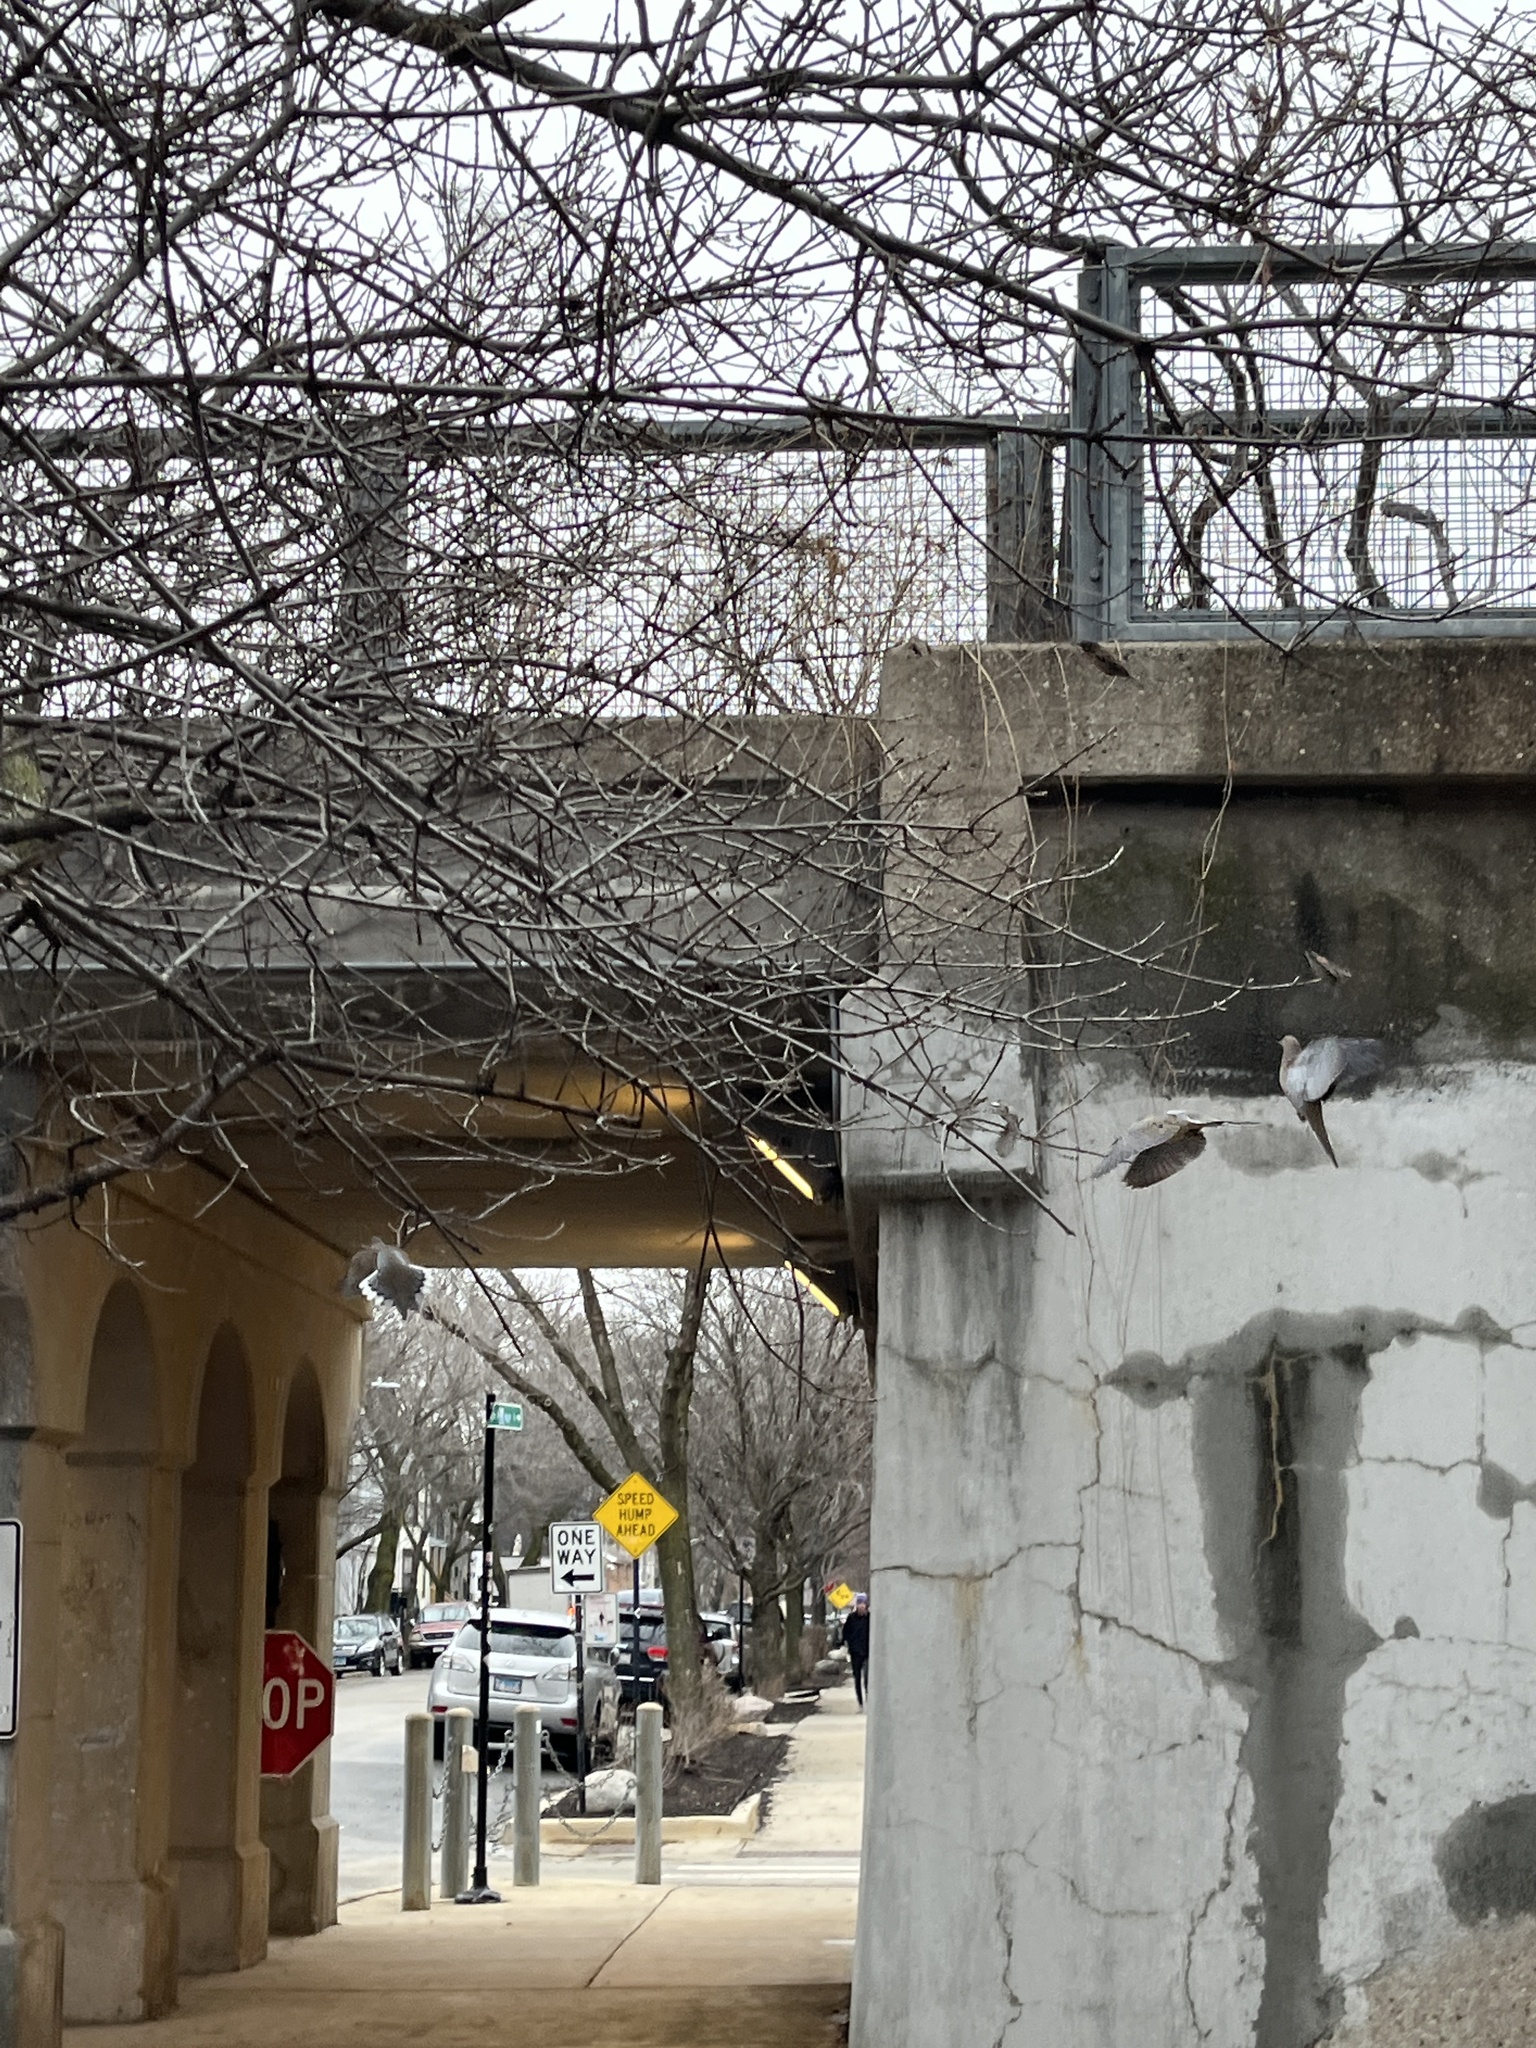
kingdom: Animalia
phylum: Chordata
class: Aves
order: Columbiformes
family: Columbidae
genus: Zenaida
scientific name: Zenaida macroura
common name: Mourning dove
